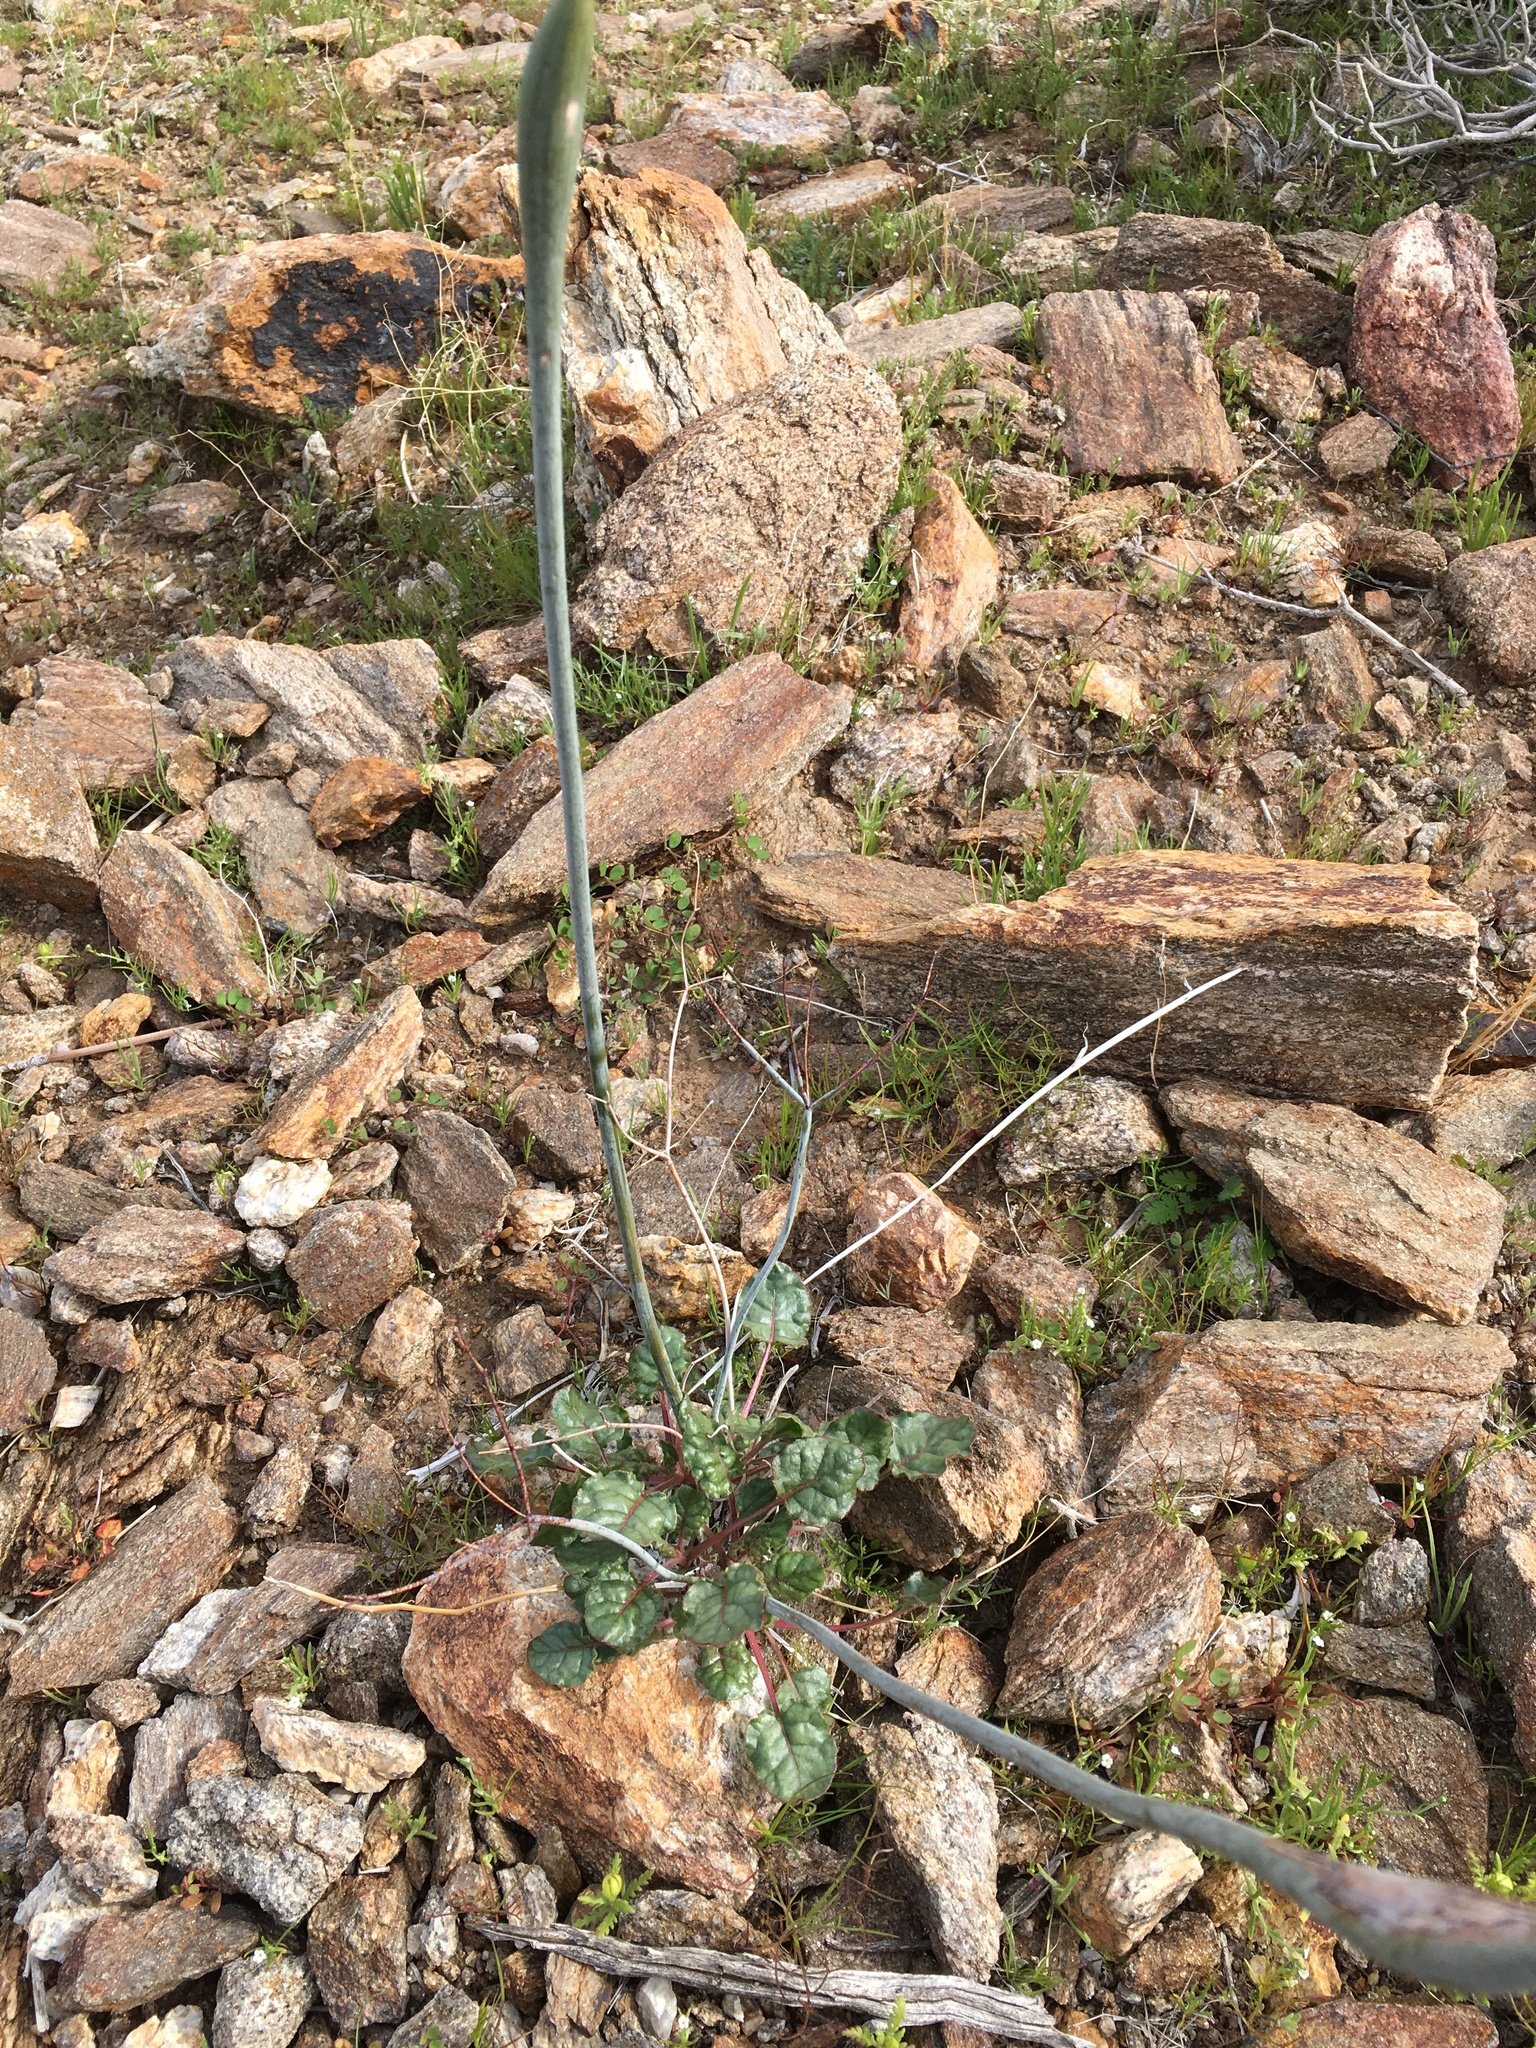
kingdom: Plantae
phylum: Tracheophyta
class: Magnoliopsida
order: Caryophyllales
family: Polygonaceae
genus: Eriogonum
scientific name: Eriogonum inflatum
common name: Desert trumpet
